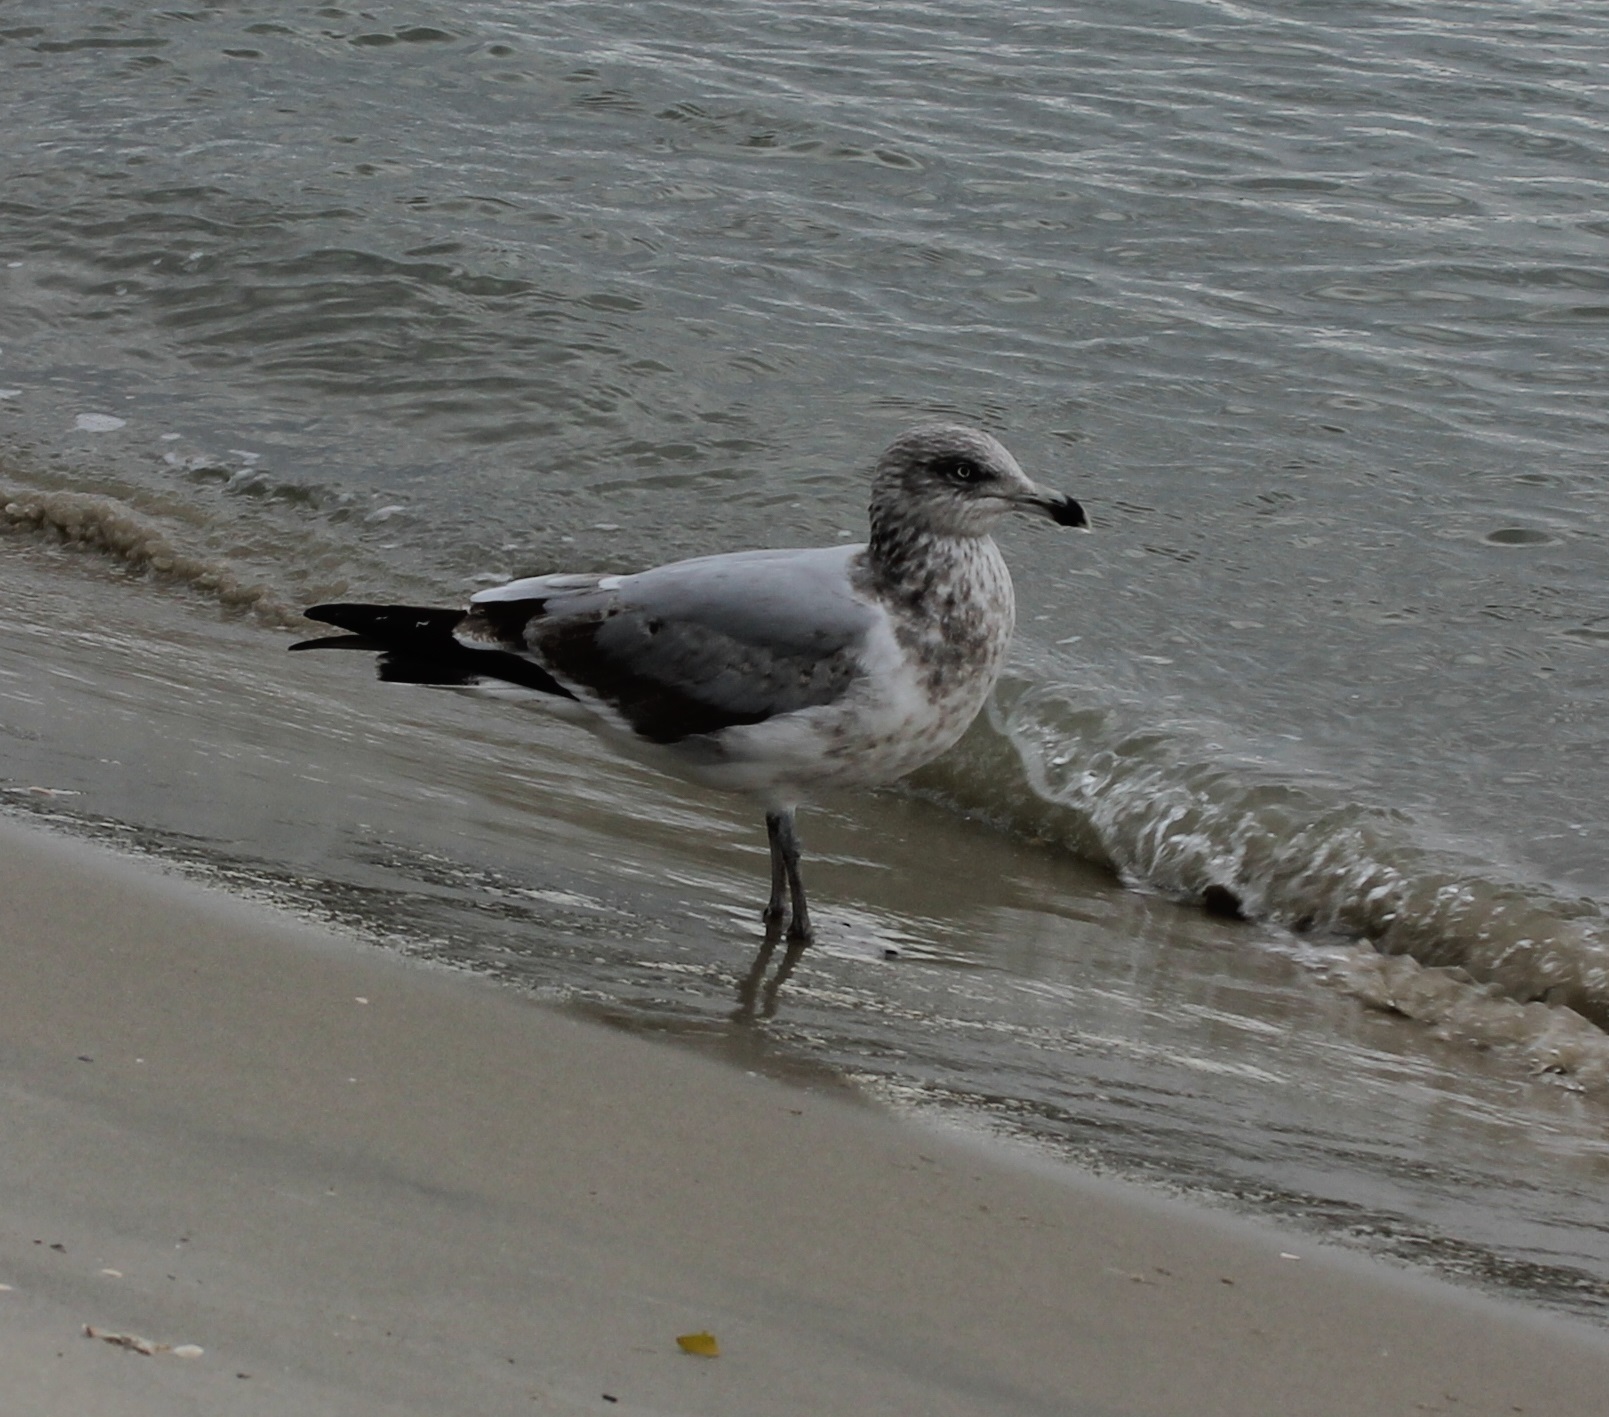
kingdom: Animalia
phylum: Chordata
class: Aves
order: Charadriiformes
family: Laridae
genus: Larus
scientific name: Larus argentatus
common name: Herring gull
